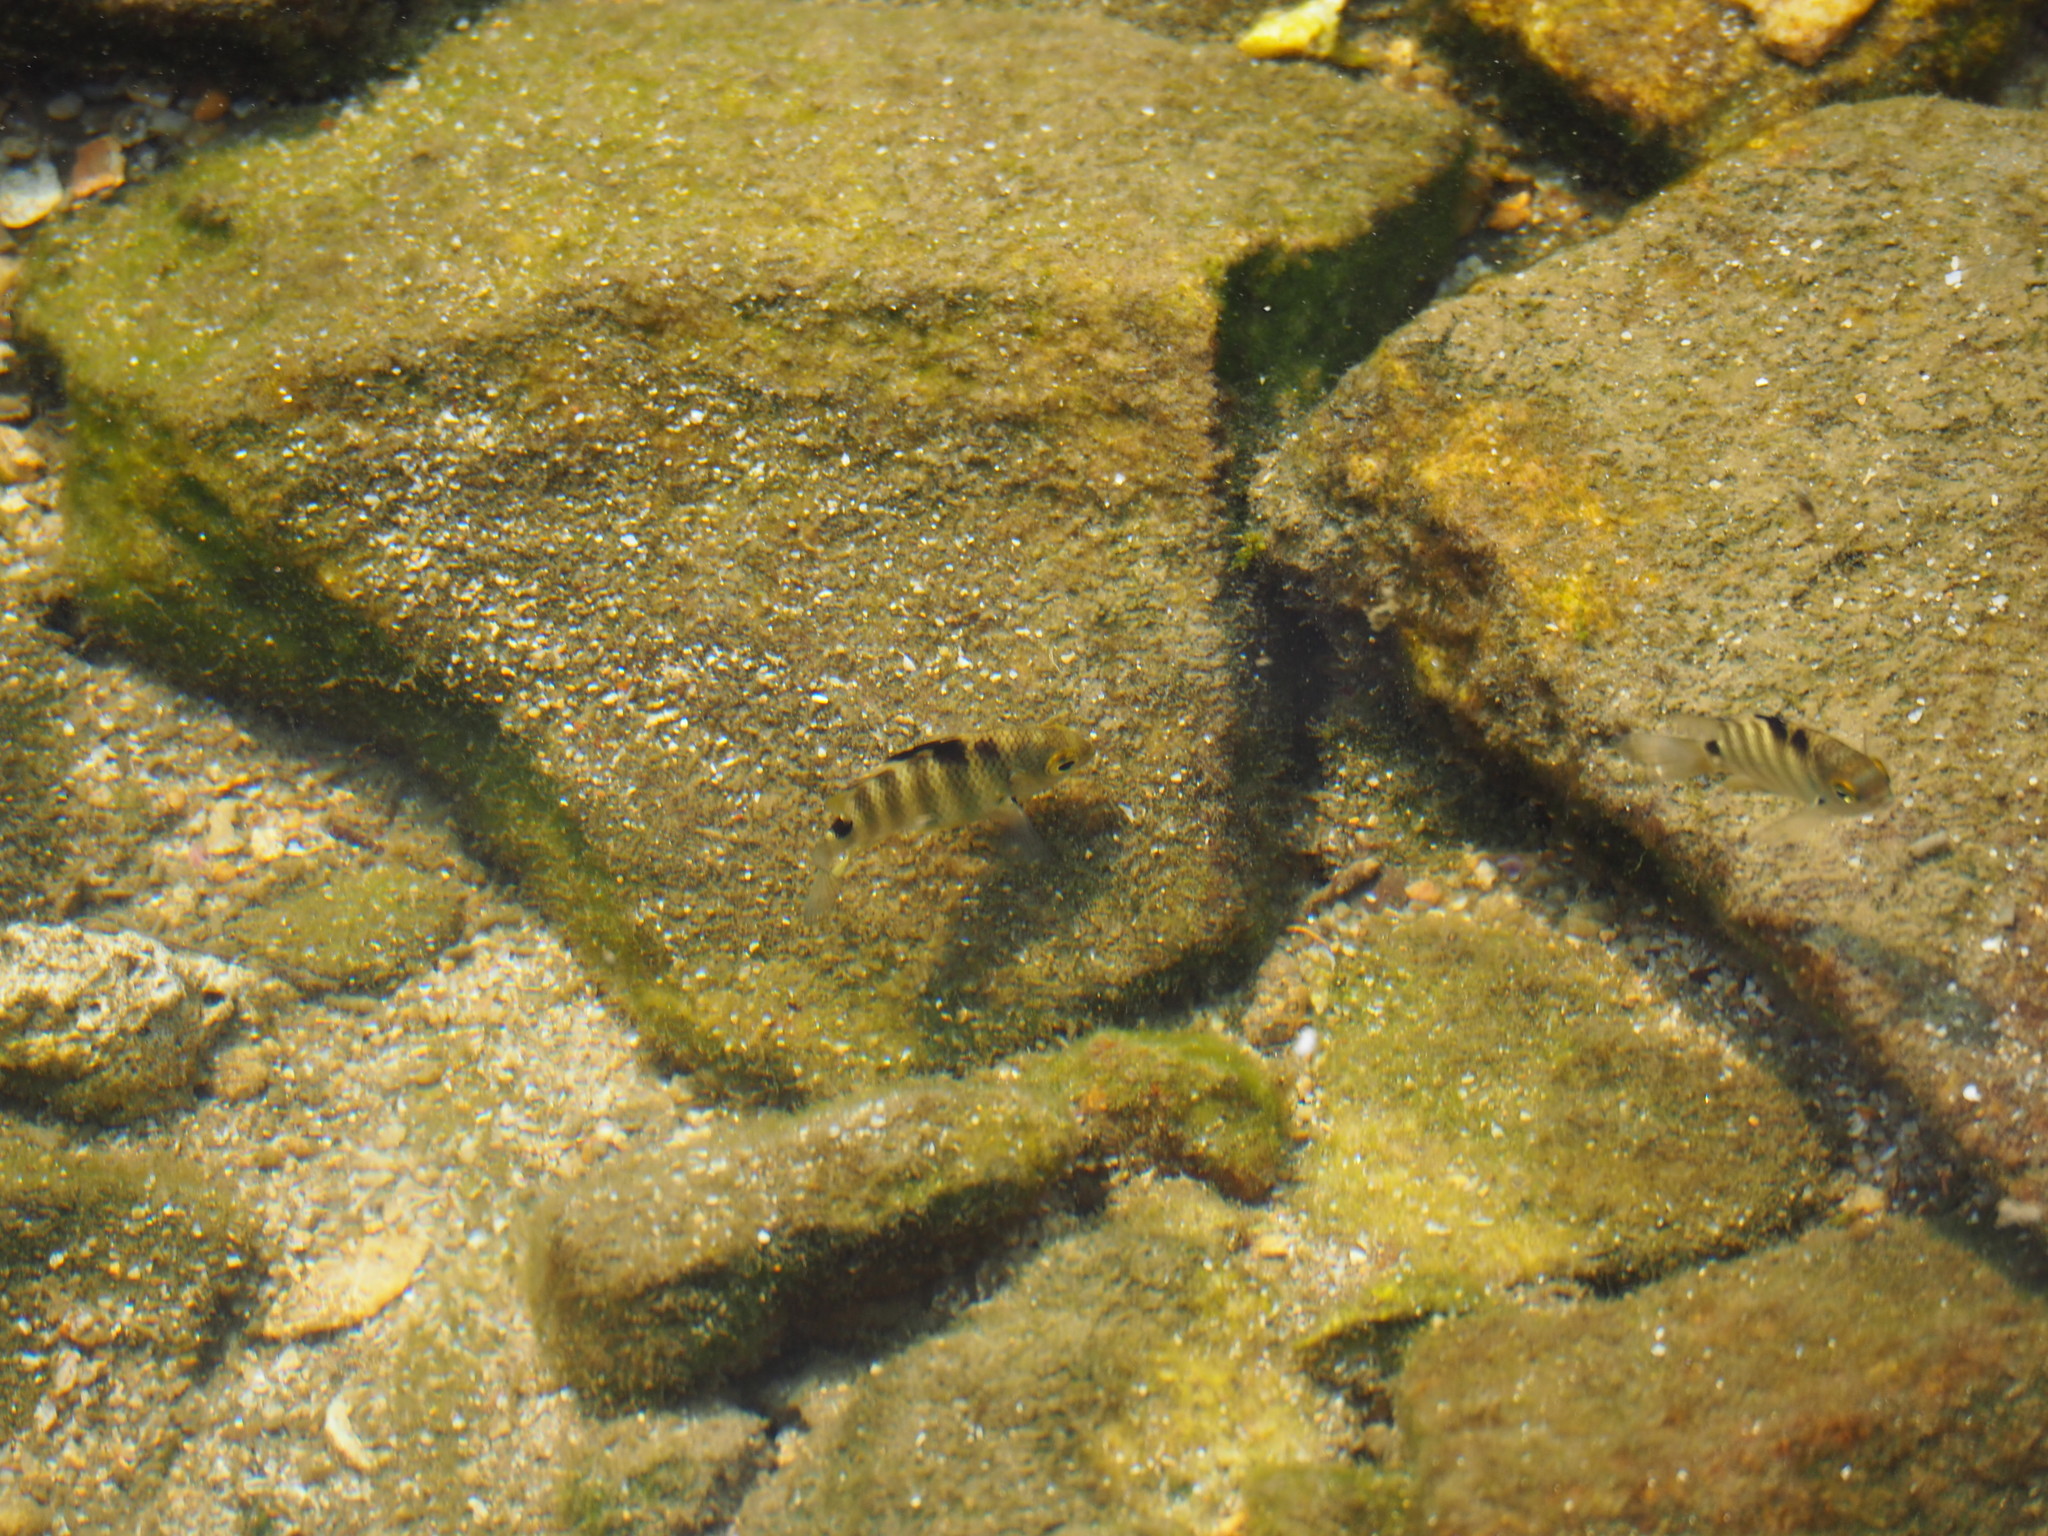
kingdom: Animalia
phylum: Chordata
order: Perciformes
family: Pomacentridae
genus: Abudefduf
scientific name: Abudefduf septemfasciatus
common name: Banded sergeant
